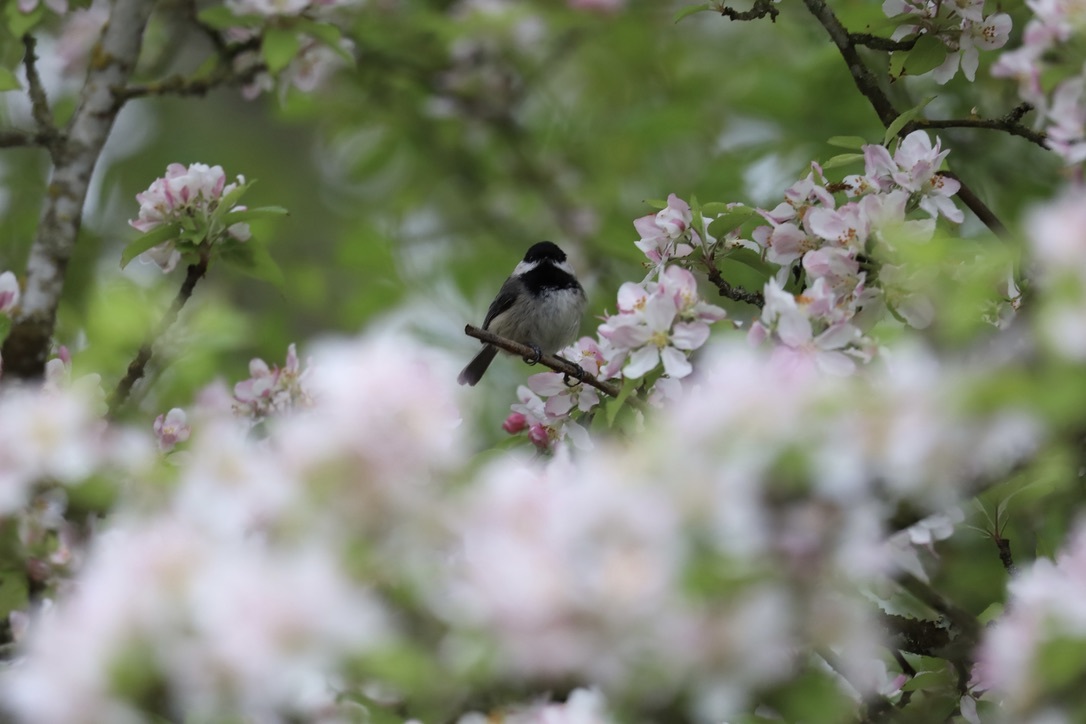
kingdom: Animalia
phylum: Chordata
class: Aves
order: Passeriformes
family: Paridae
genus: Poecile
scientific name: Poecile atricapillus
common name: Black-capped chickadee
